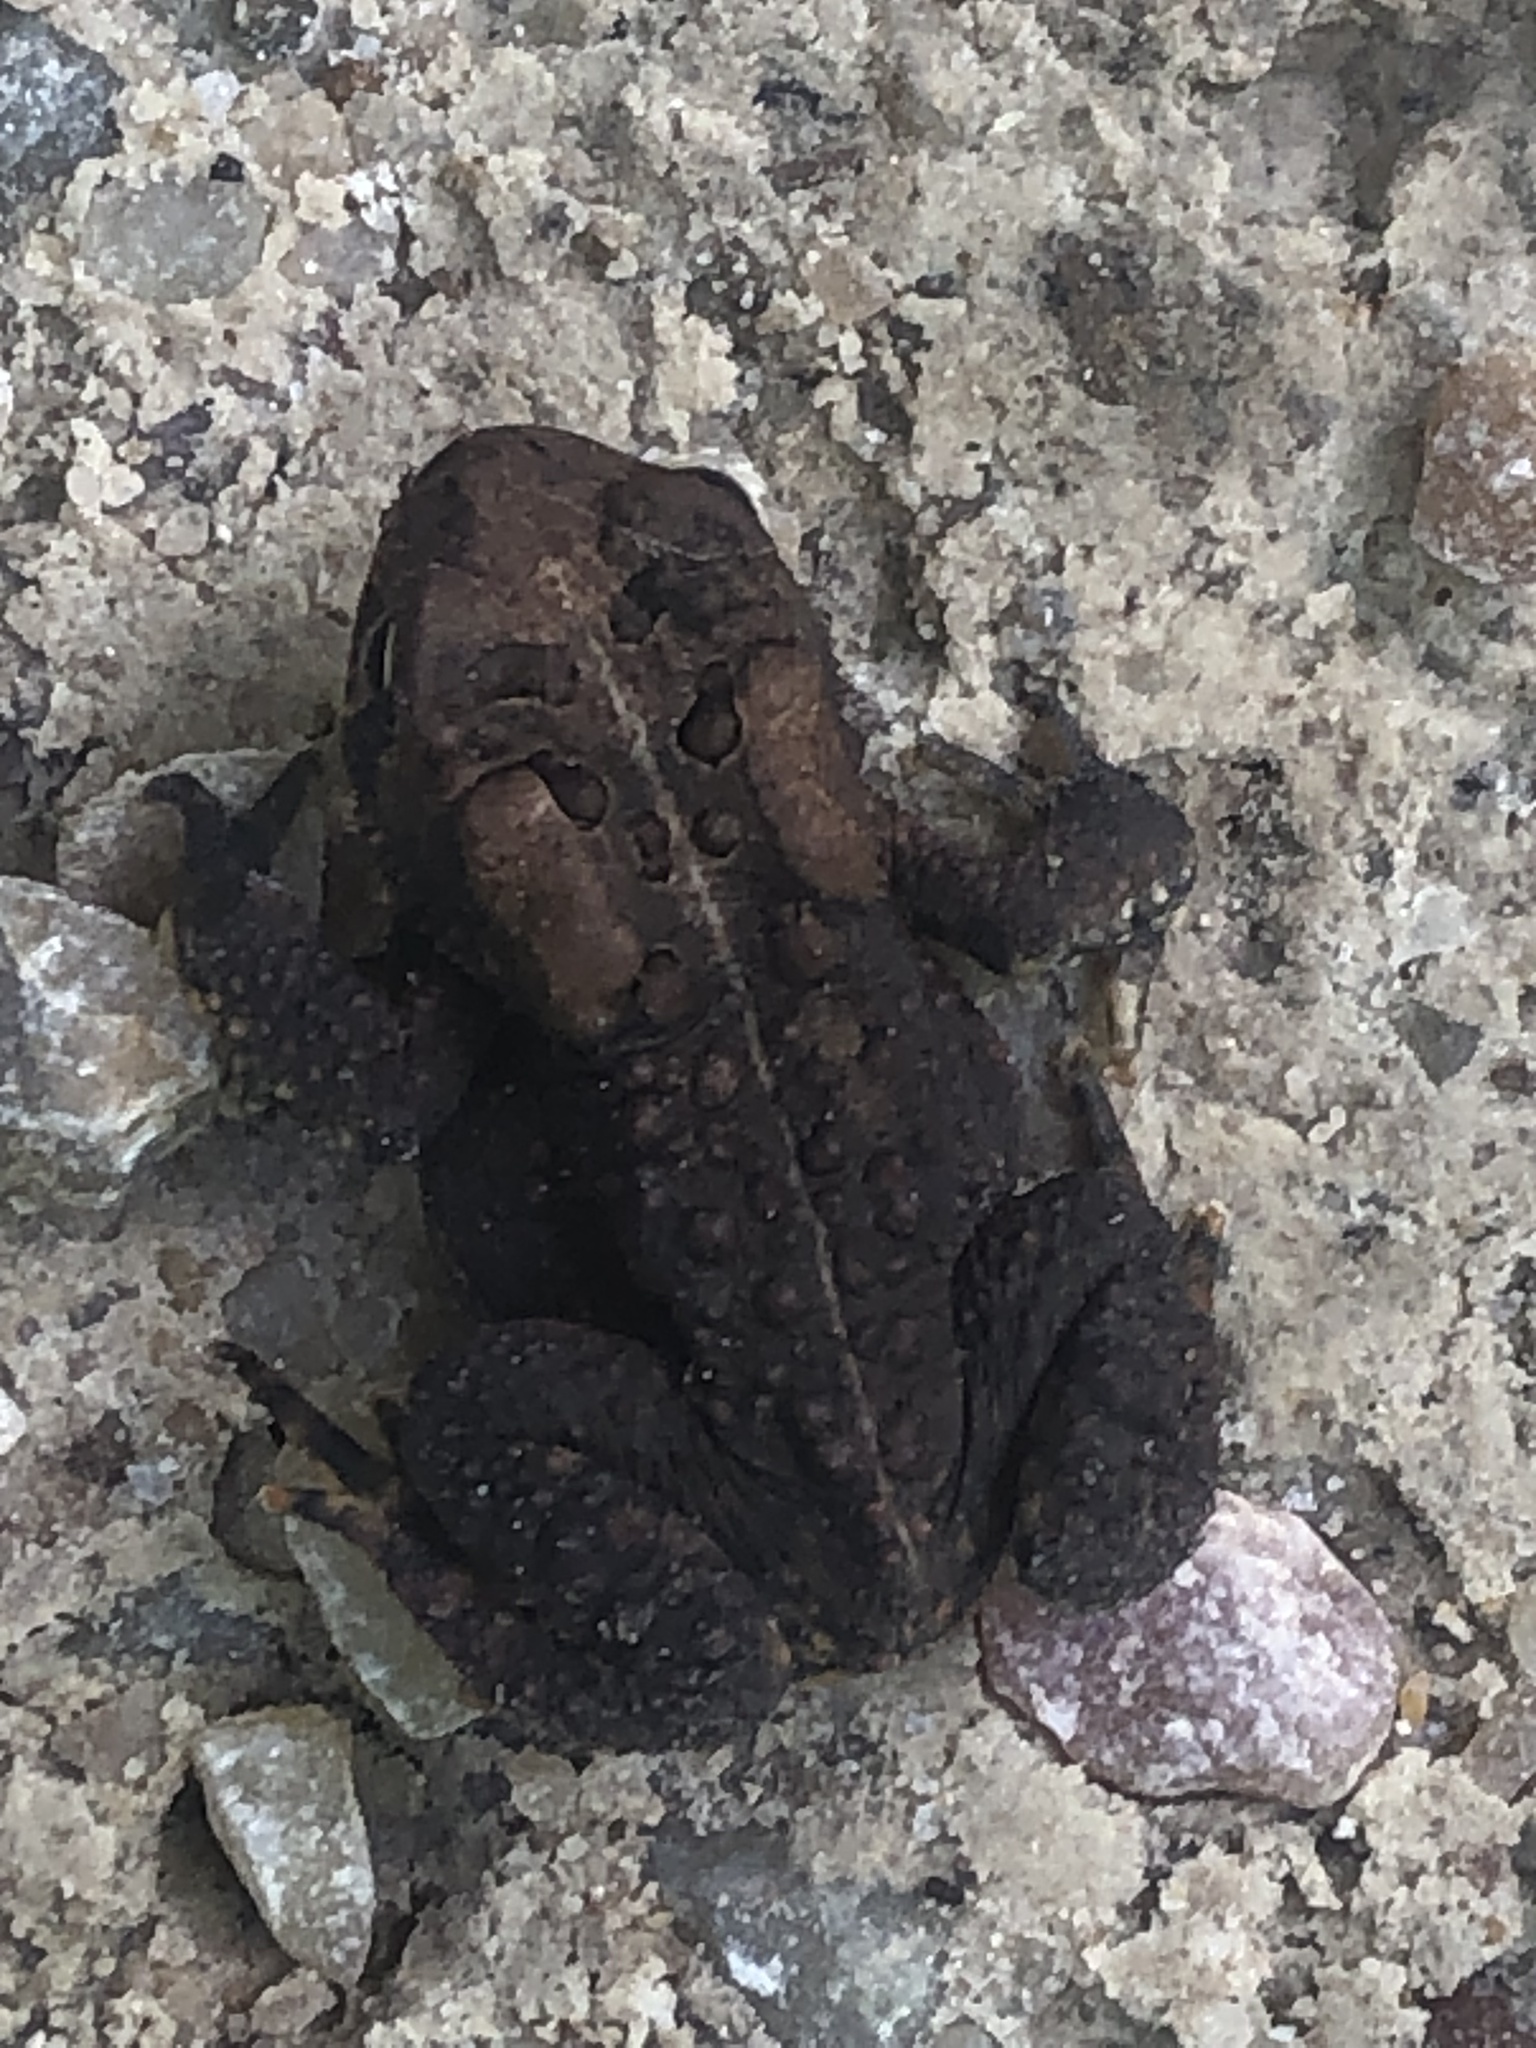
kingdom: Animalia
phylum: Chordata
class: Amphibia
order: Anura
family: Bufonidae
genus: Anaxyrus
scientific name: Anaxyrus americanus
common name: American toad
